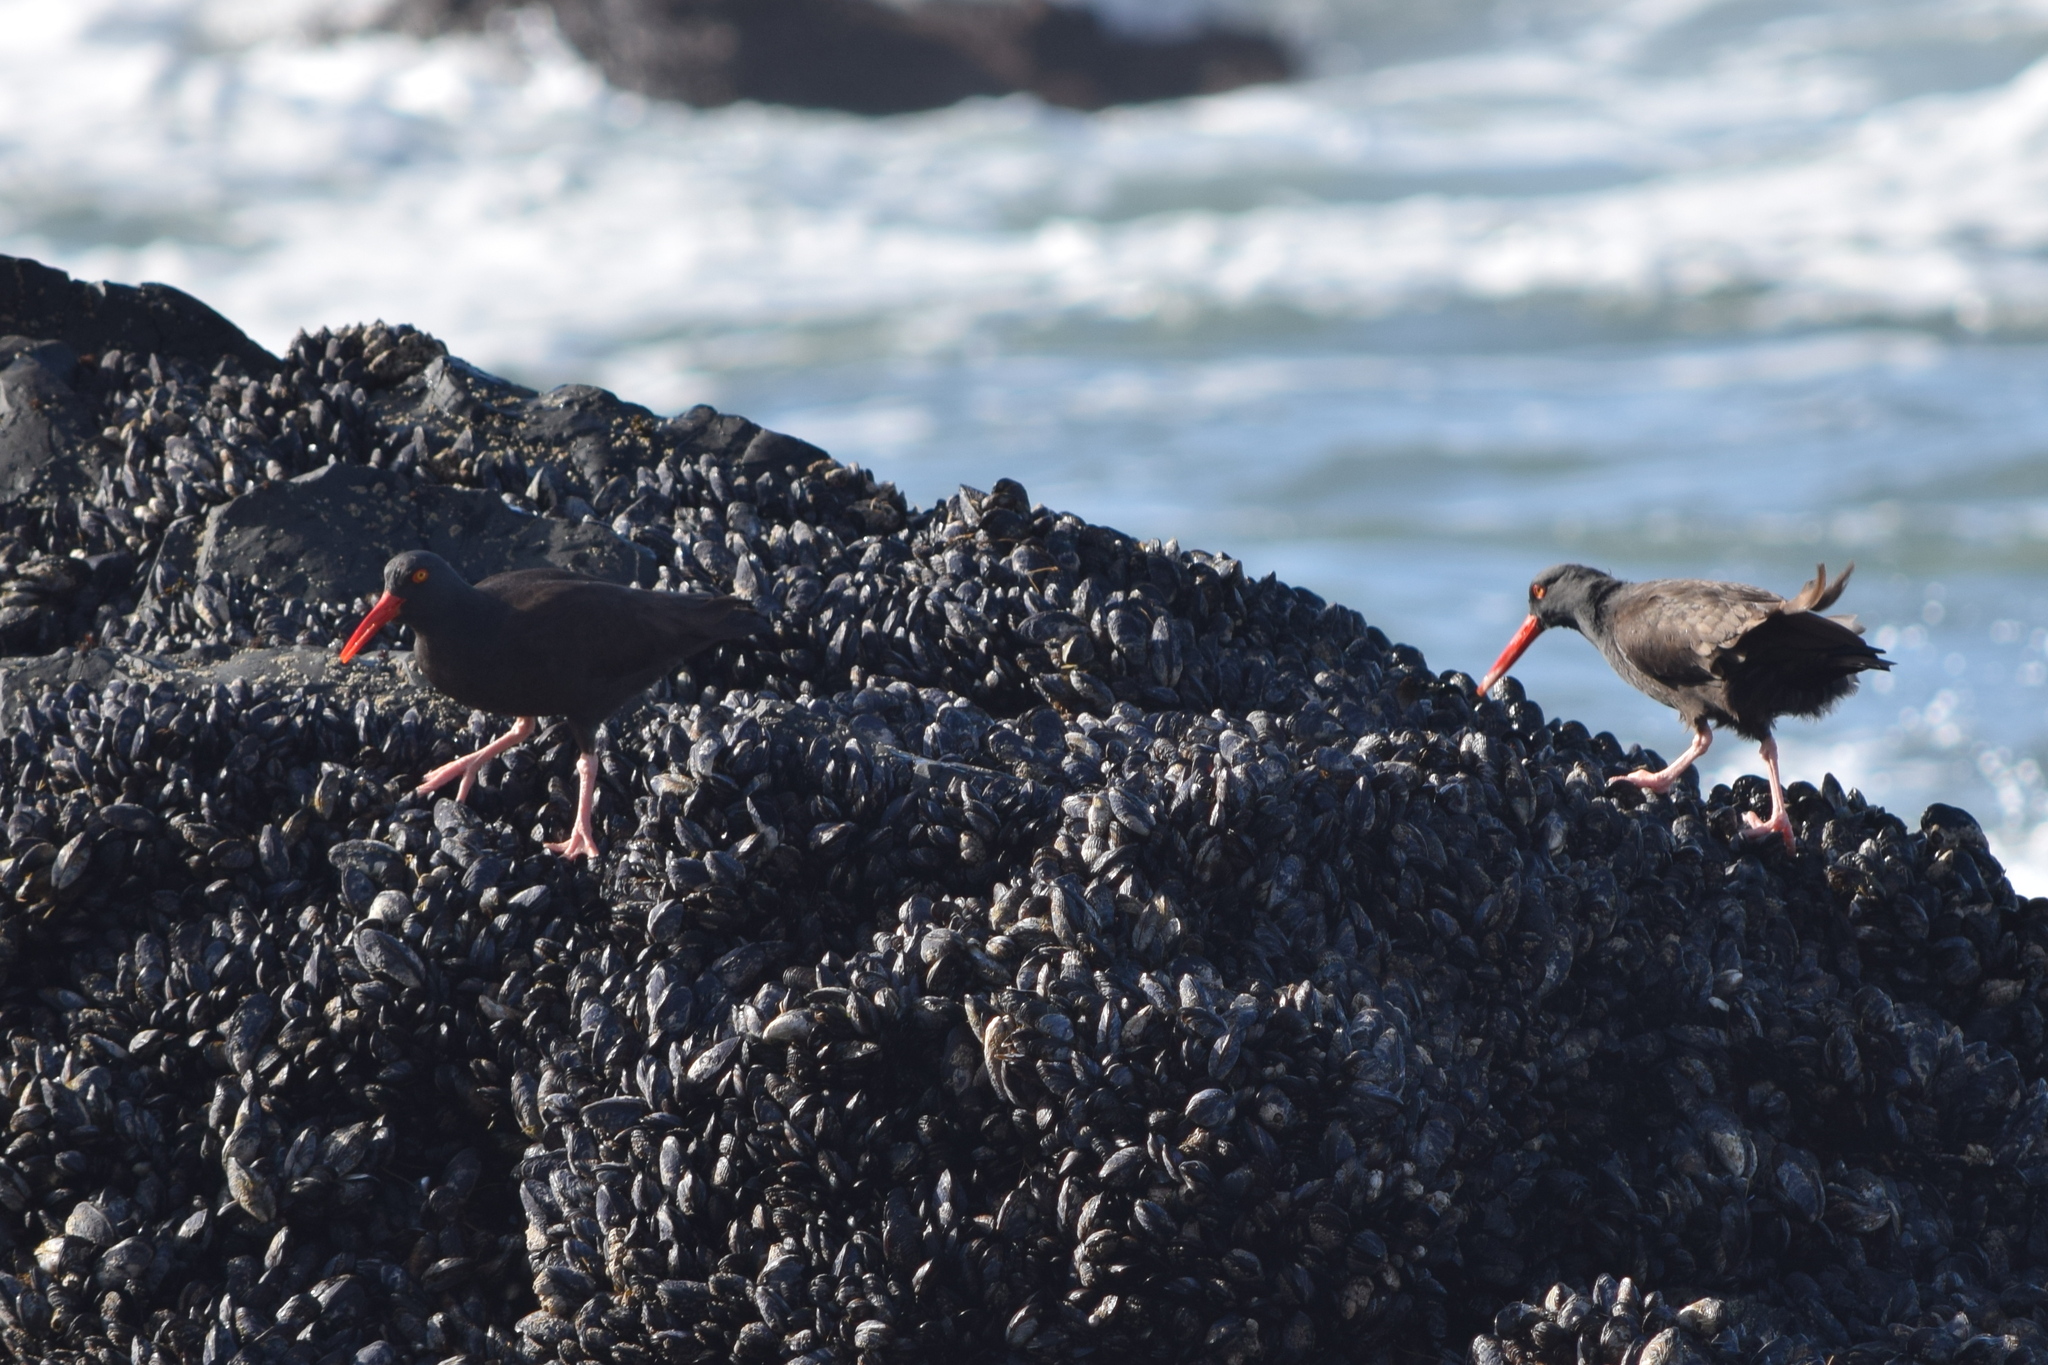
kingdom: Animalia
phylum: Chordata
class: Aves
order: Charadriiformes
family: Haematopodidae
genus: Haematopus
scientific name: Haematopus bachmani
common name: Black oystercatcher
